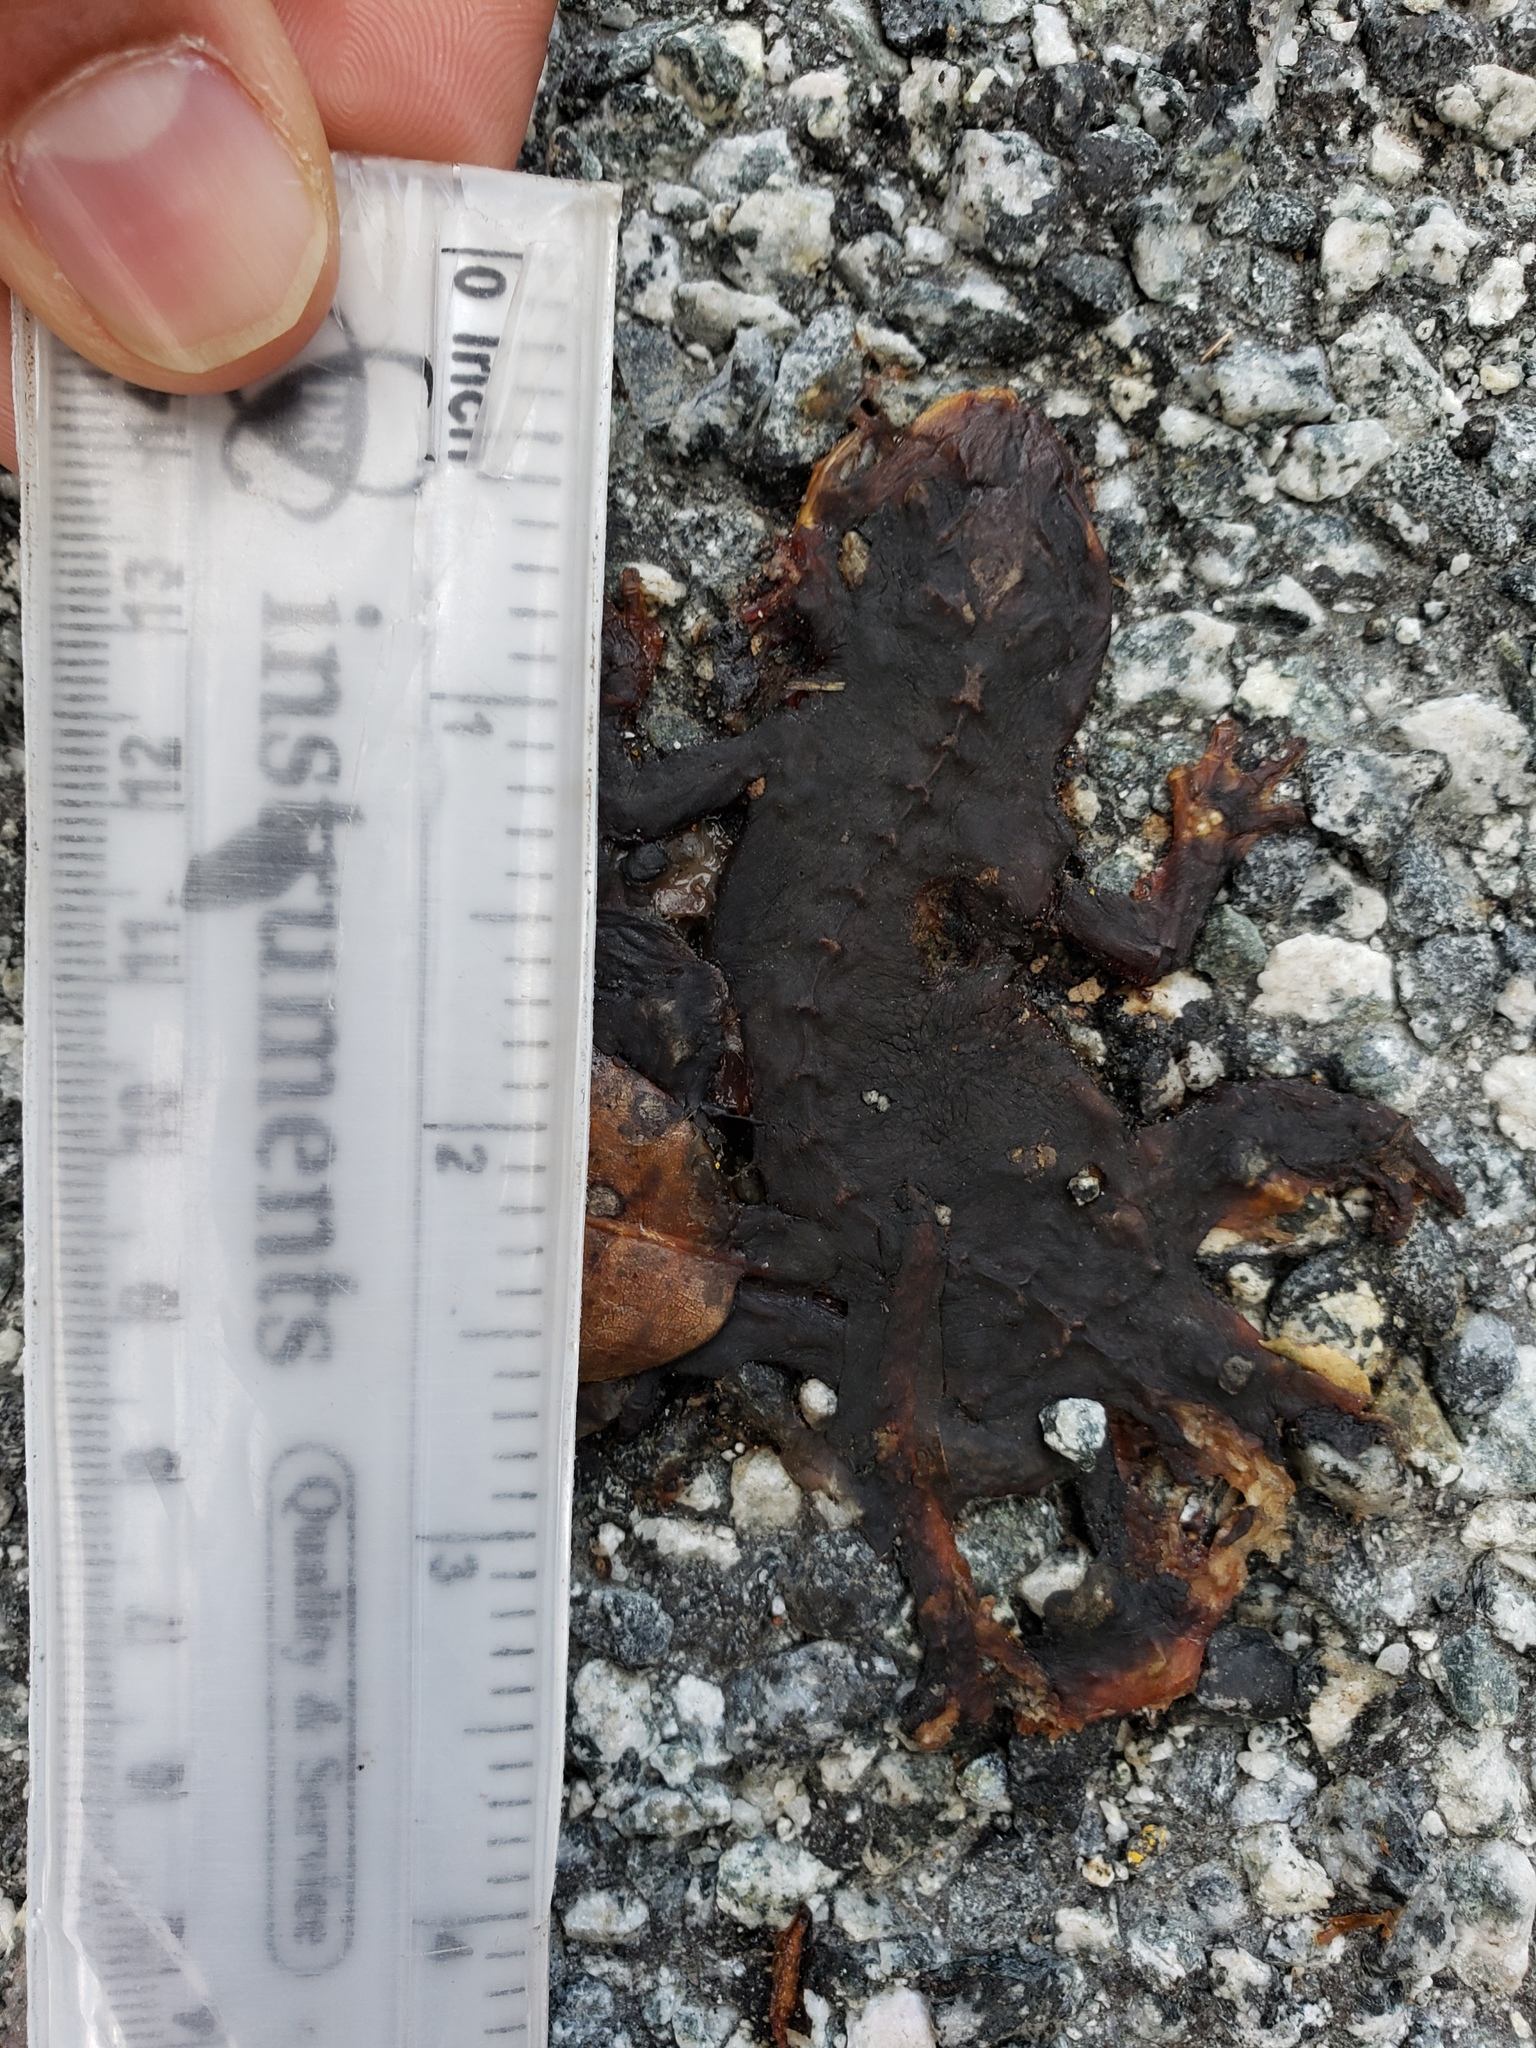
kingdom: Animalia
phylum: Chordata
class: Amphibia
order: Caudata
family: Salamandridae
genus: Taricha
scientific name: Taricha
